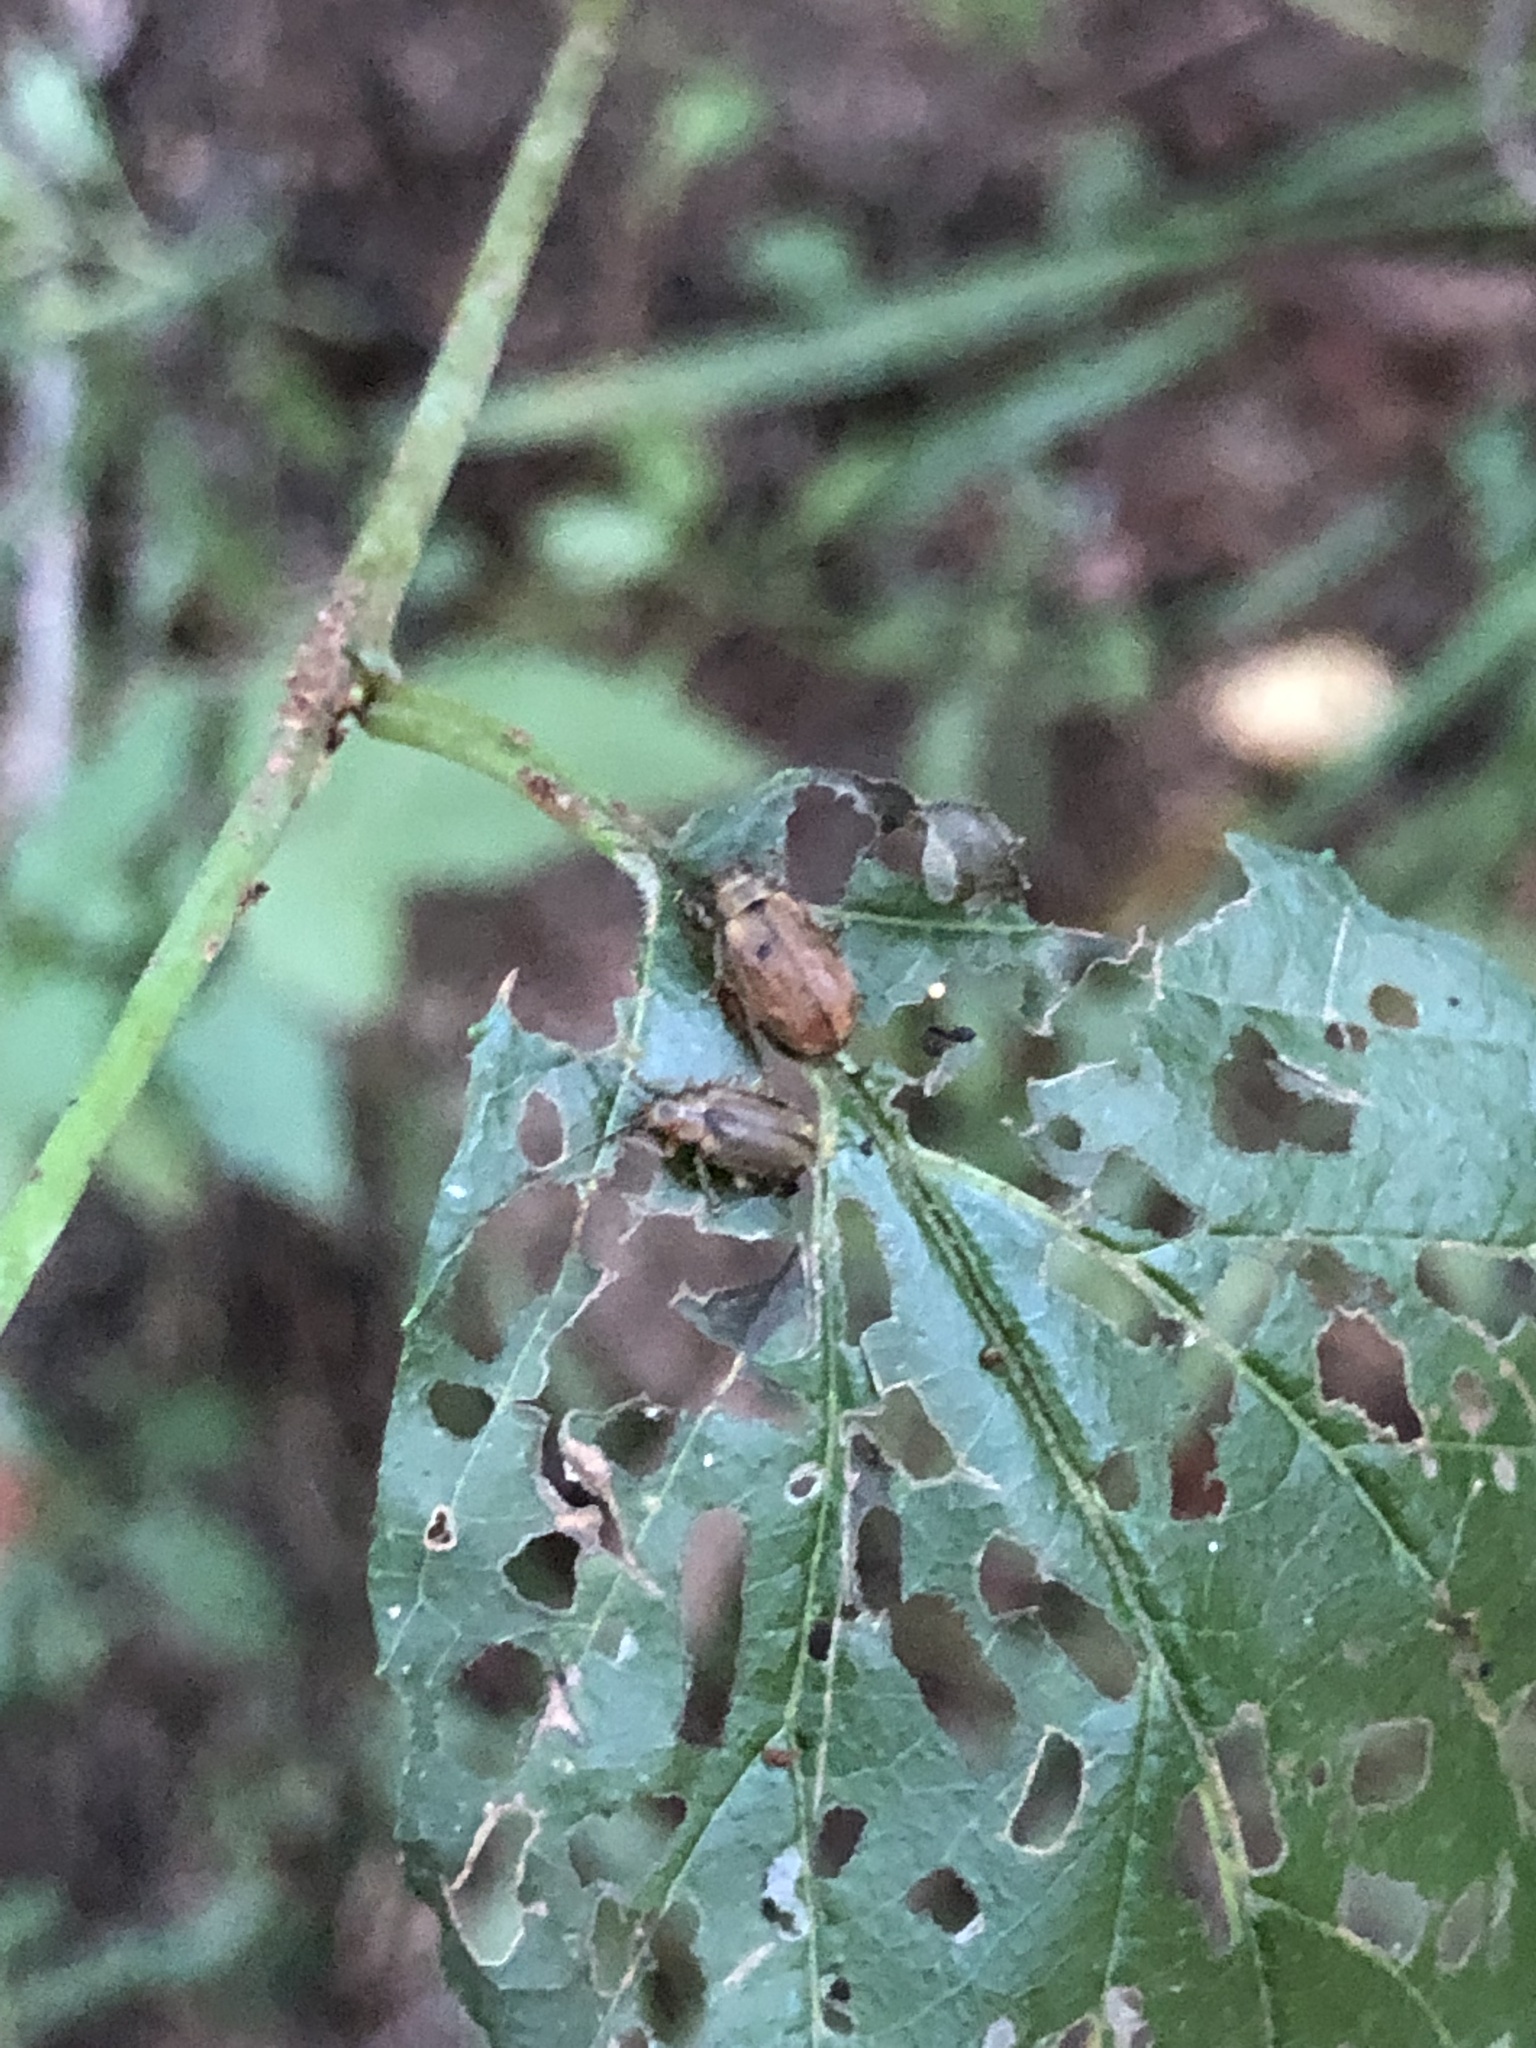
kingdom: Animalia
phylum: Arthropoda
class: Insecta
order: Coleoptera
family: Chrysomelidae
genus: Pyrrhalta
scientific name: Pyrrhalta viburni
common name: Guelder-rose leaf beetle
